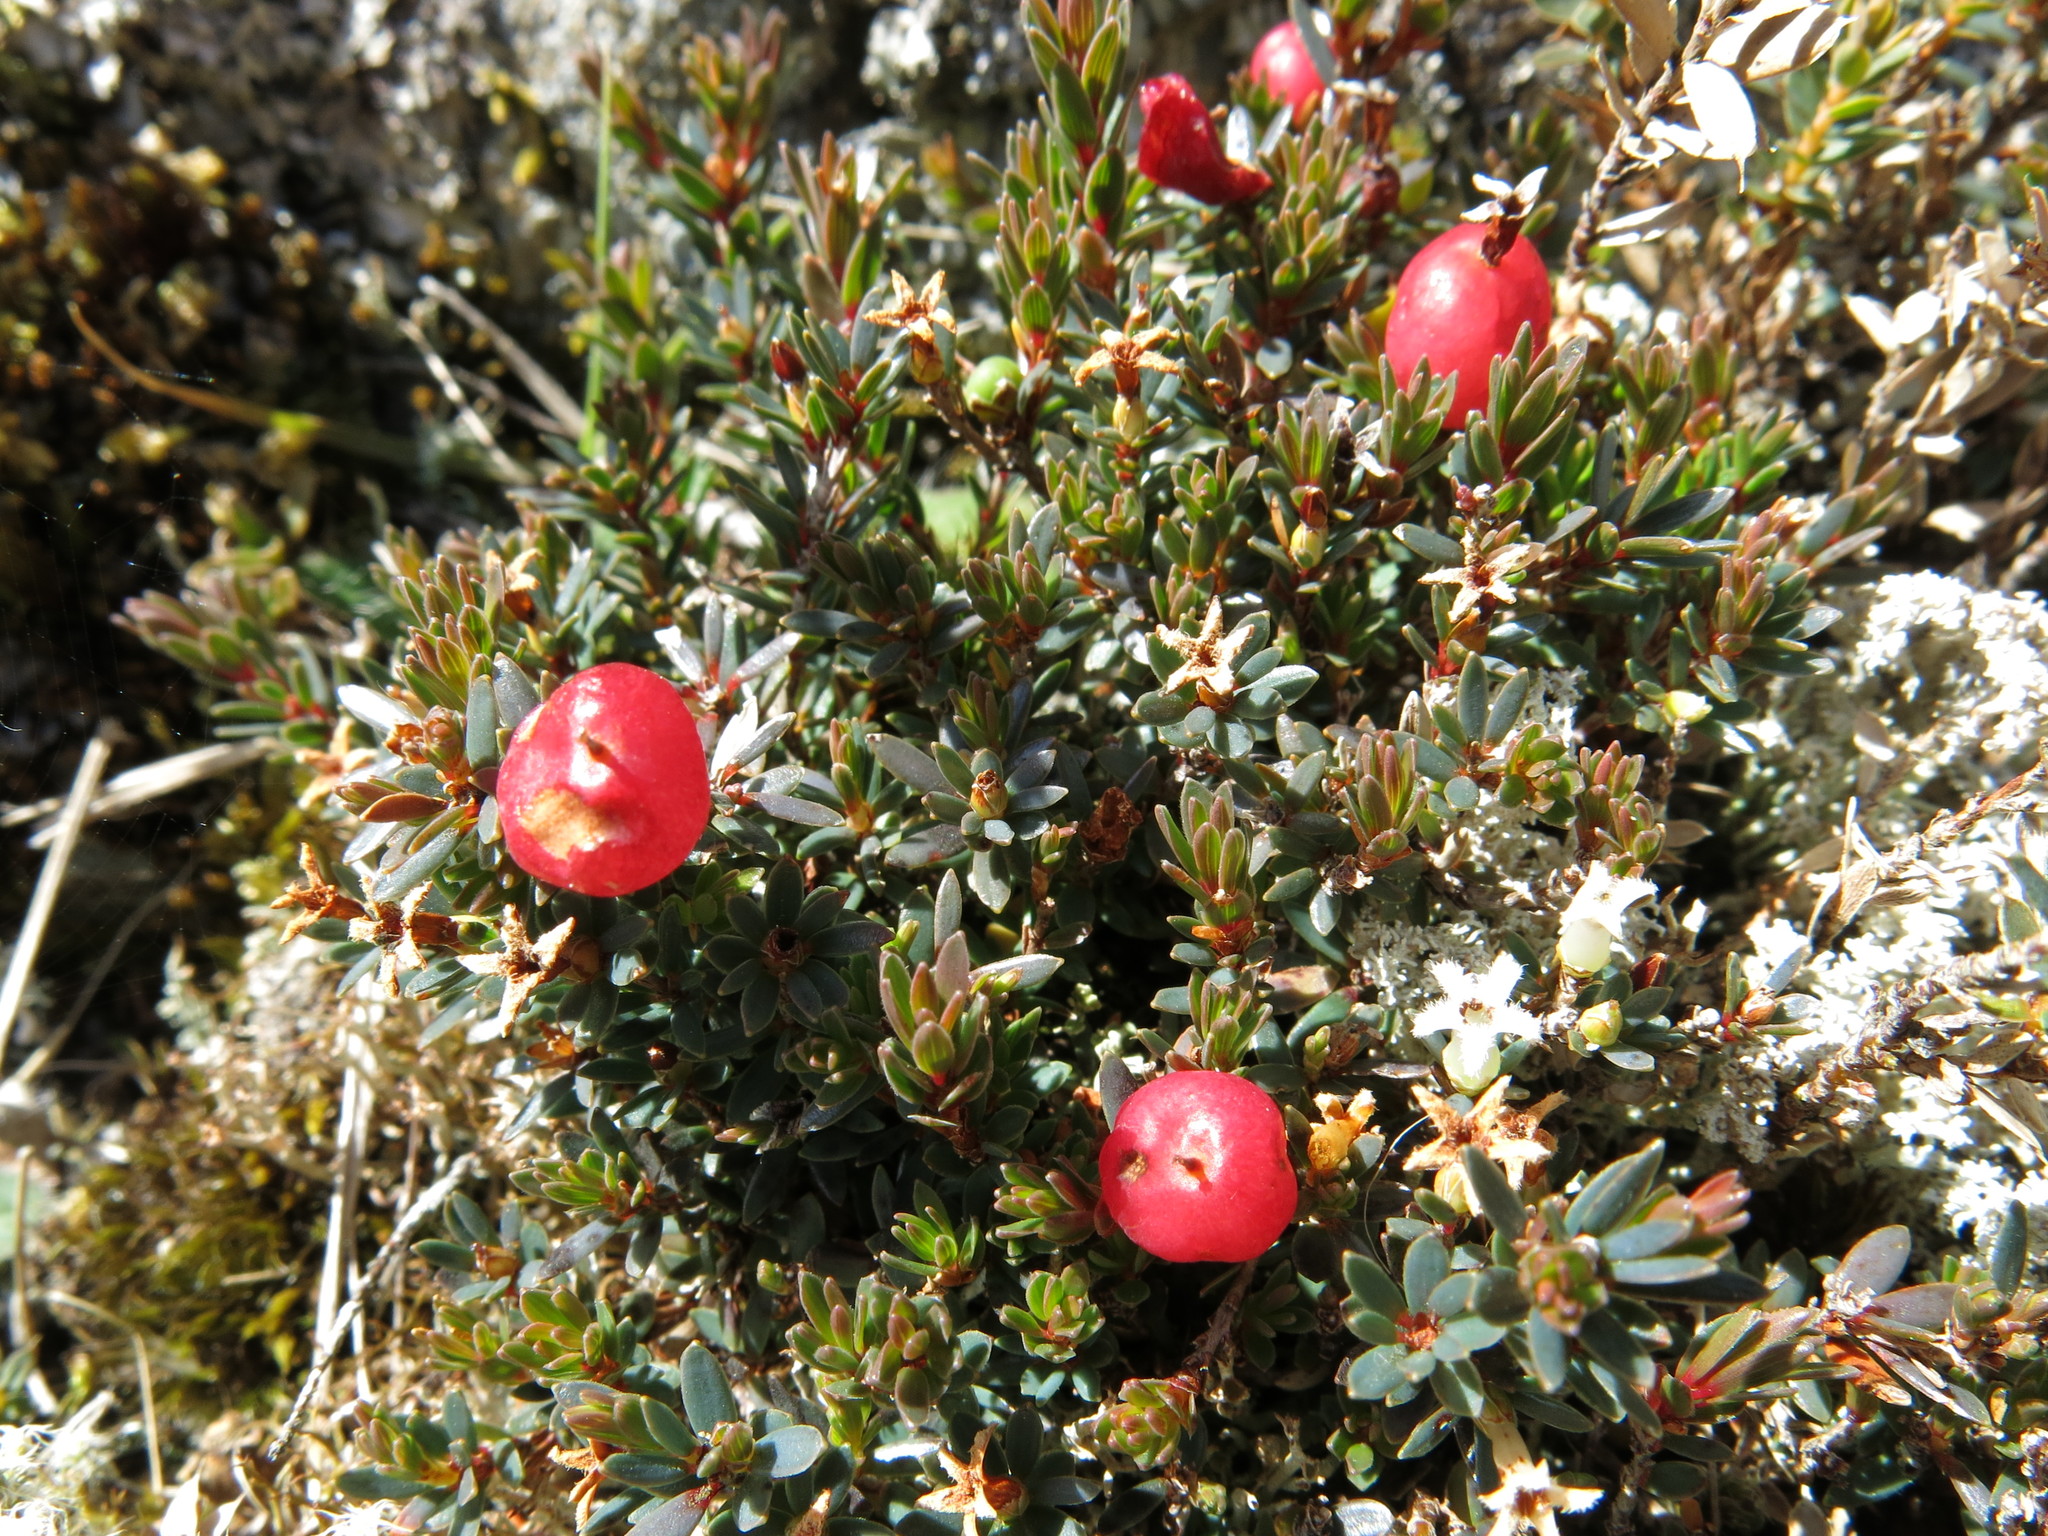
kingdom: Plantae
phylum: Tracheophyta
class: Magnoliopsida
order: Ericales
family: Ericaceae
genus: Pentachondra
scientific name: Pentachondra pumila
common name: Carpet-heath
